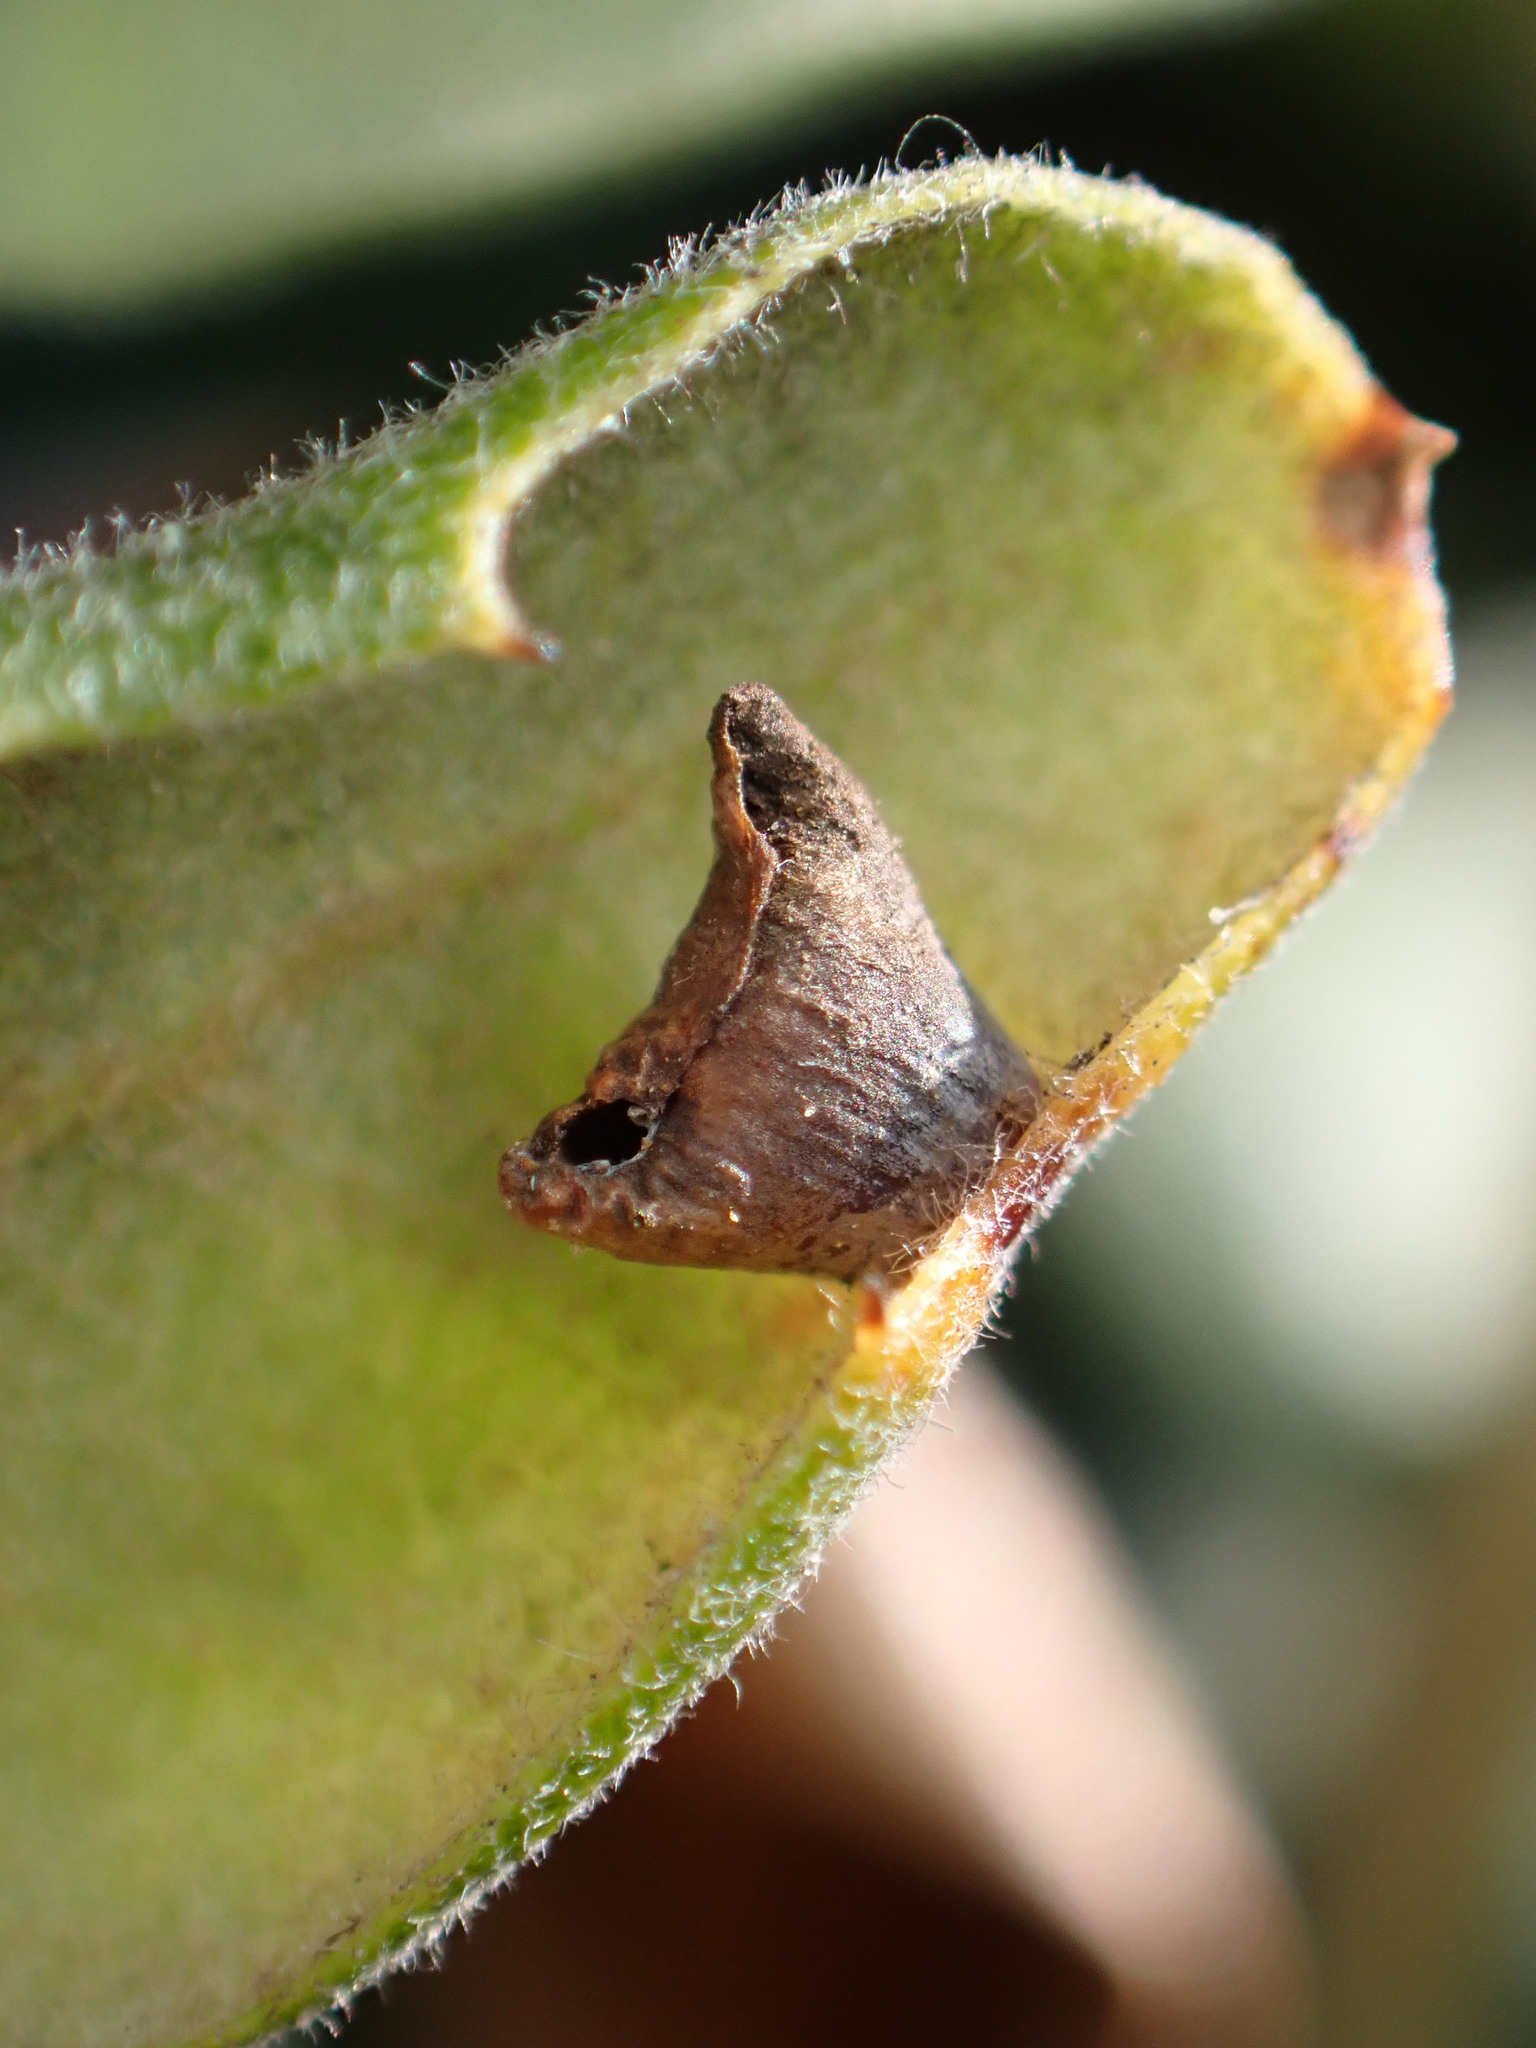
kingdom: Animalia
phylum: Arthropoda
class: Insecta
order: Hymenoptera
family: Cynipidae
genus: Andricus
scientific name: Andricus
